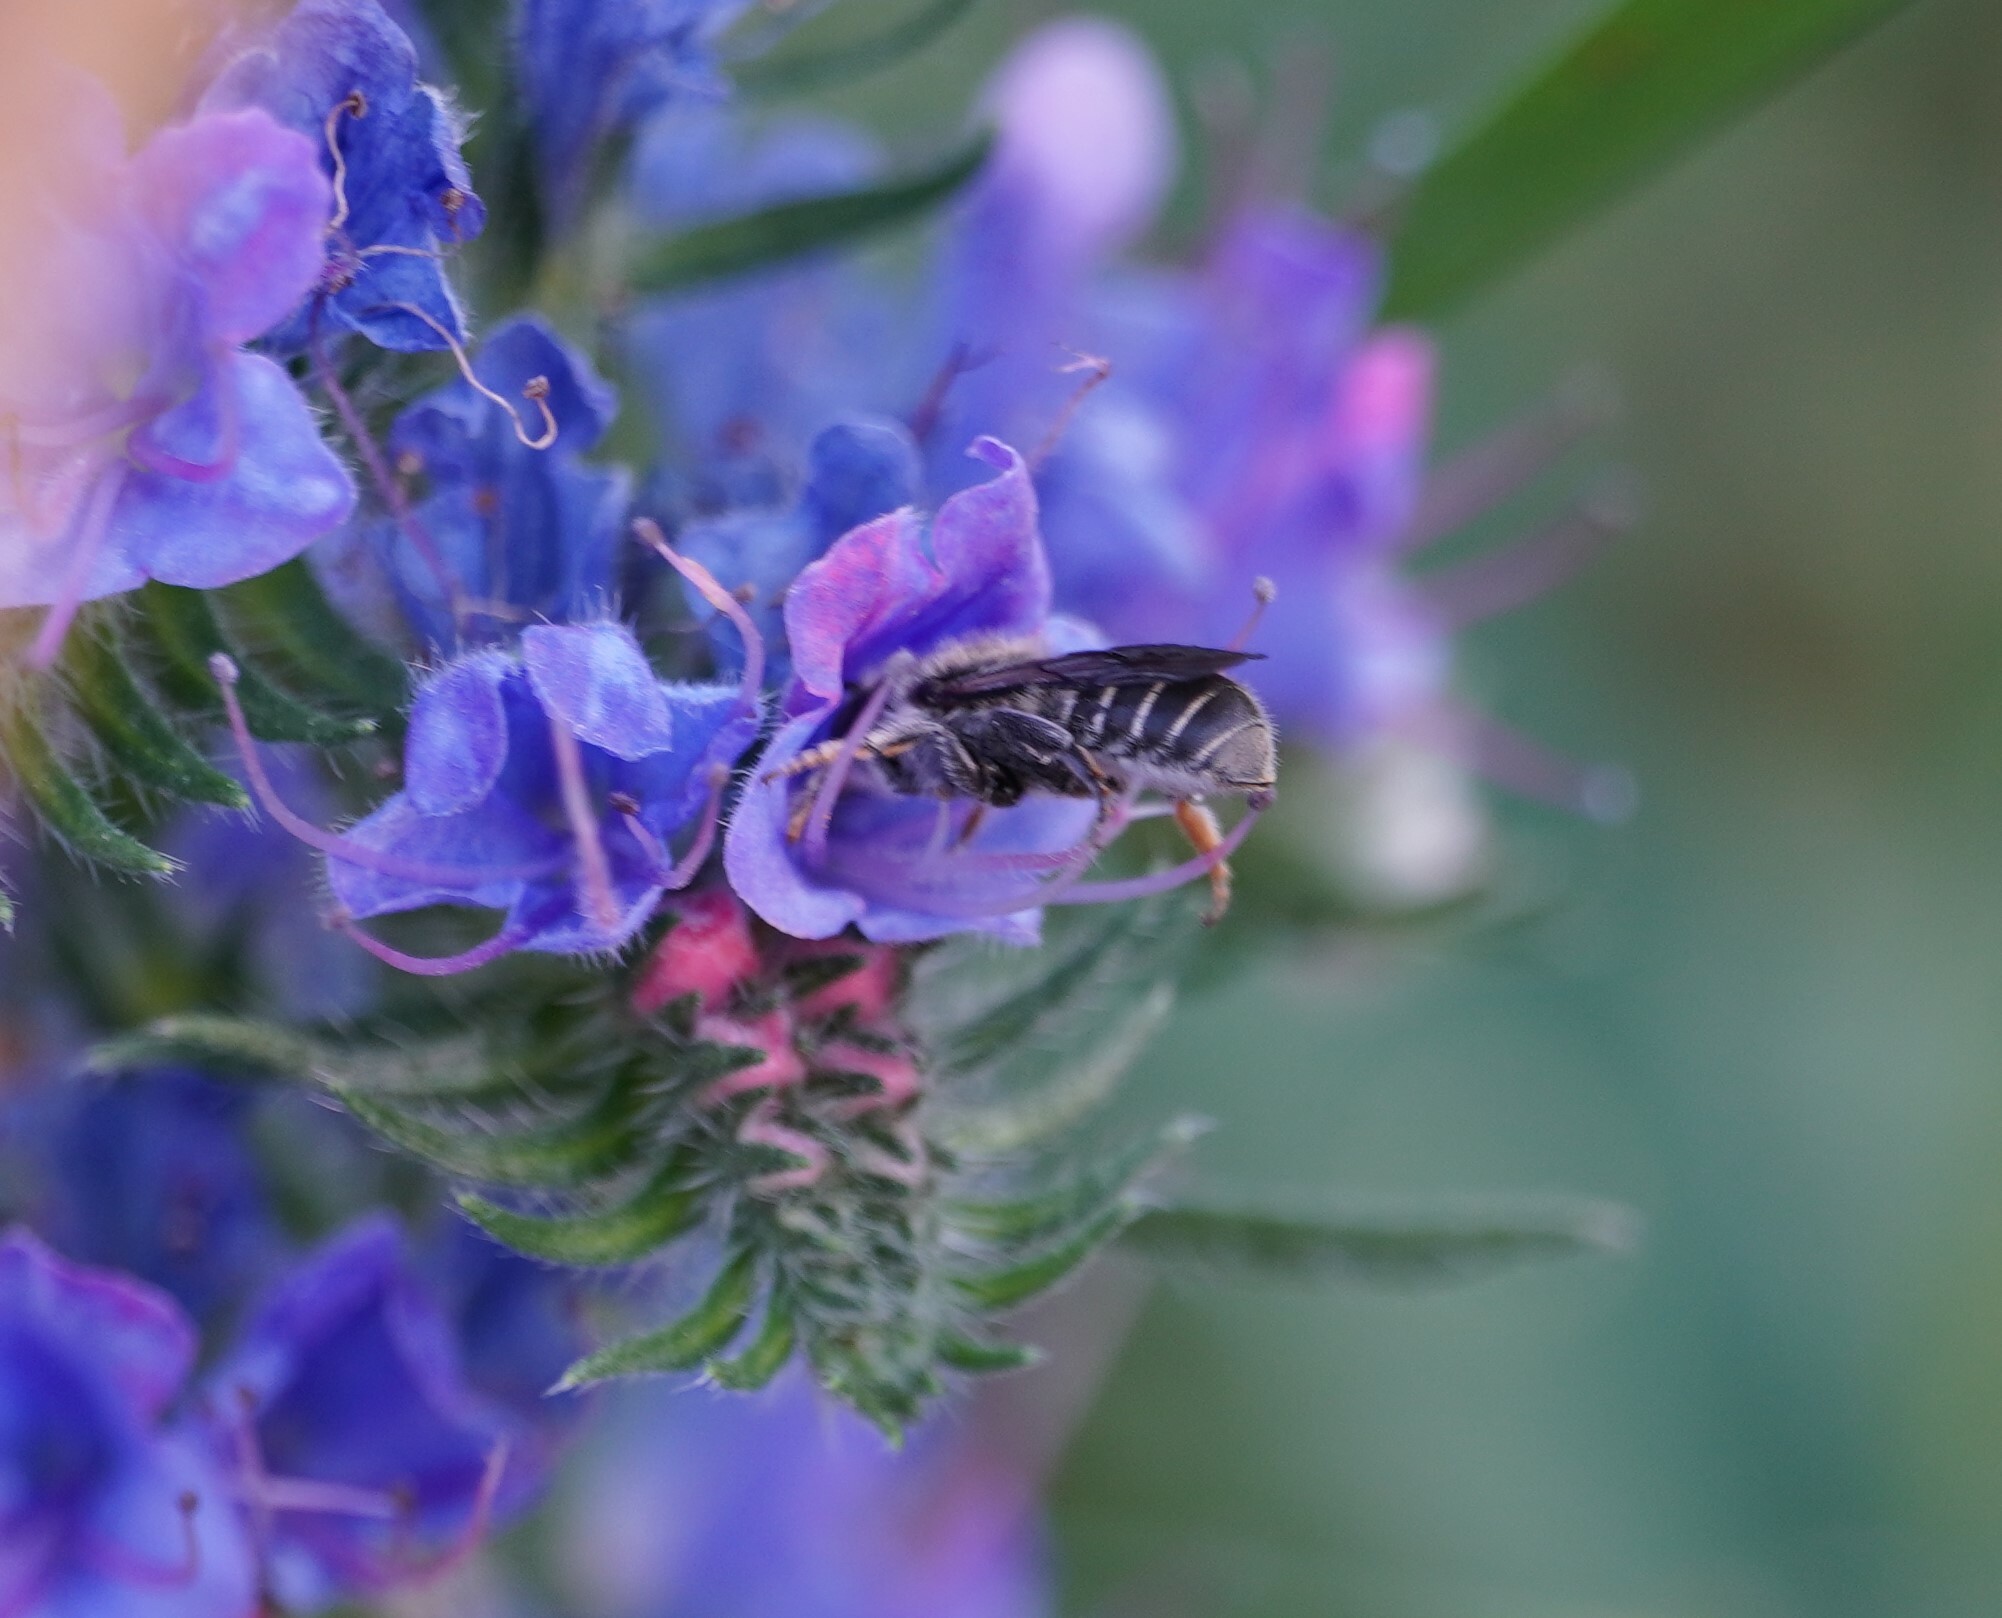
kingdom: Animalia
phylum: Arthropoda
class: Insecta
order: Hymenoptera
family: Megachilidae
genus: Hoplitis
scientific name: Hoplitis
